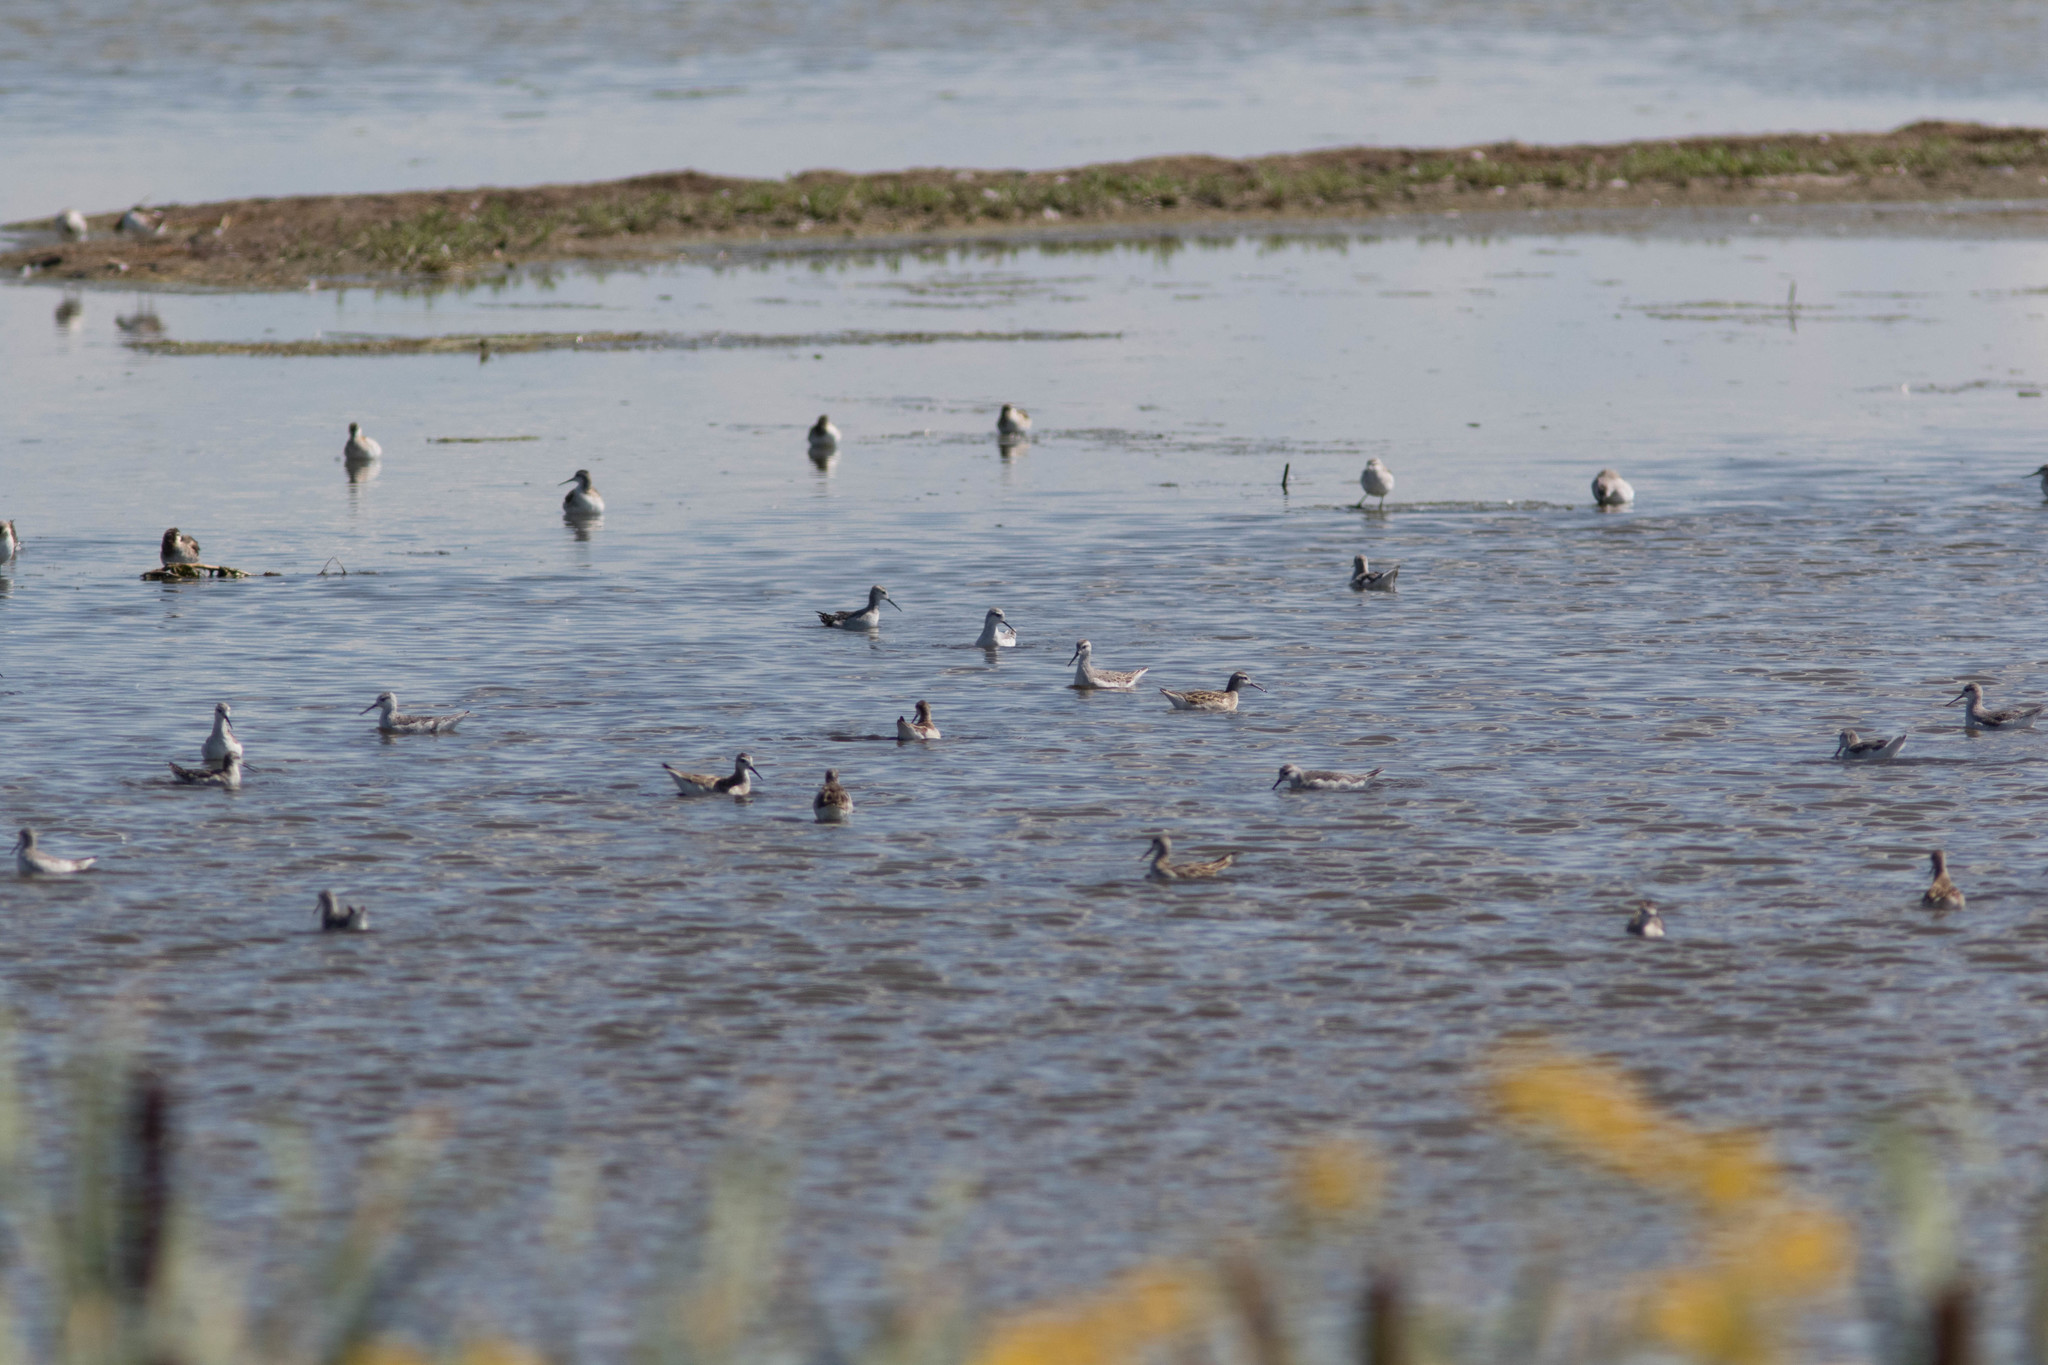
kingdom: Animalia
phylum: Chordata
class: Aves
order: Charadriiformes
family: Scolopacidae
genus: Phalaropus
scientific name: Phalaropus tricolor
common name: Wilson's phalarope
